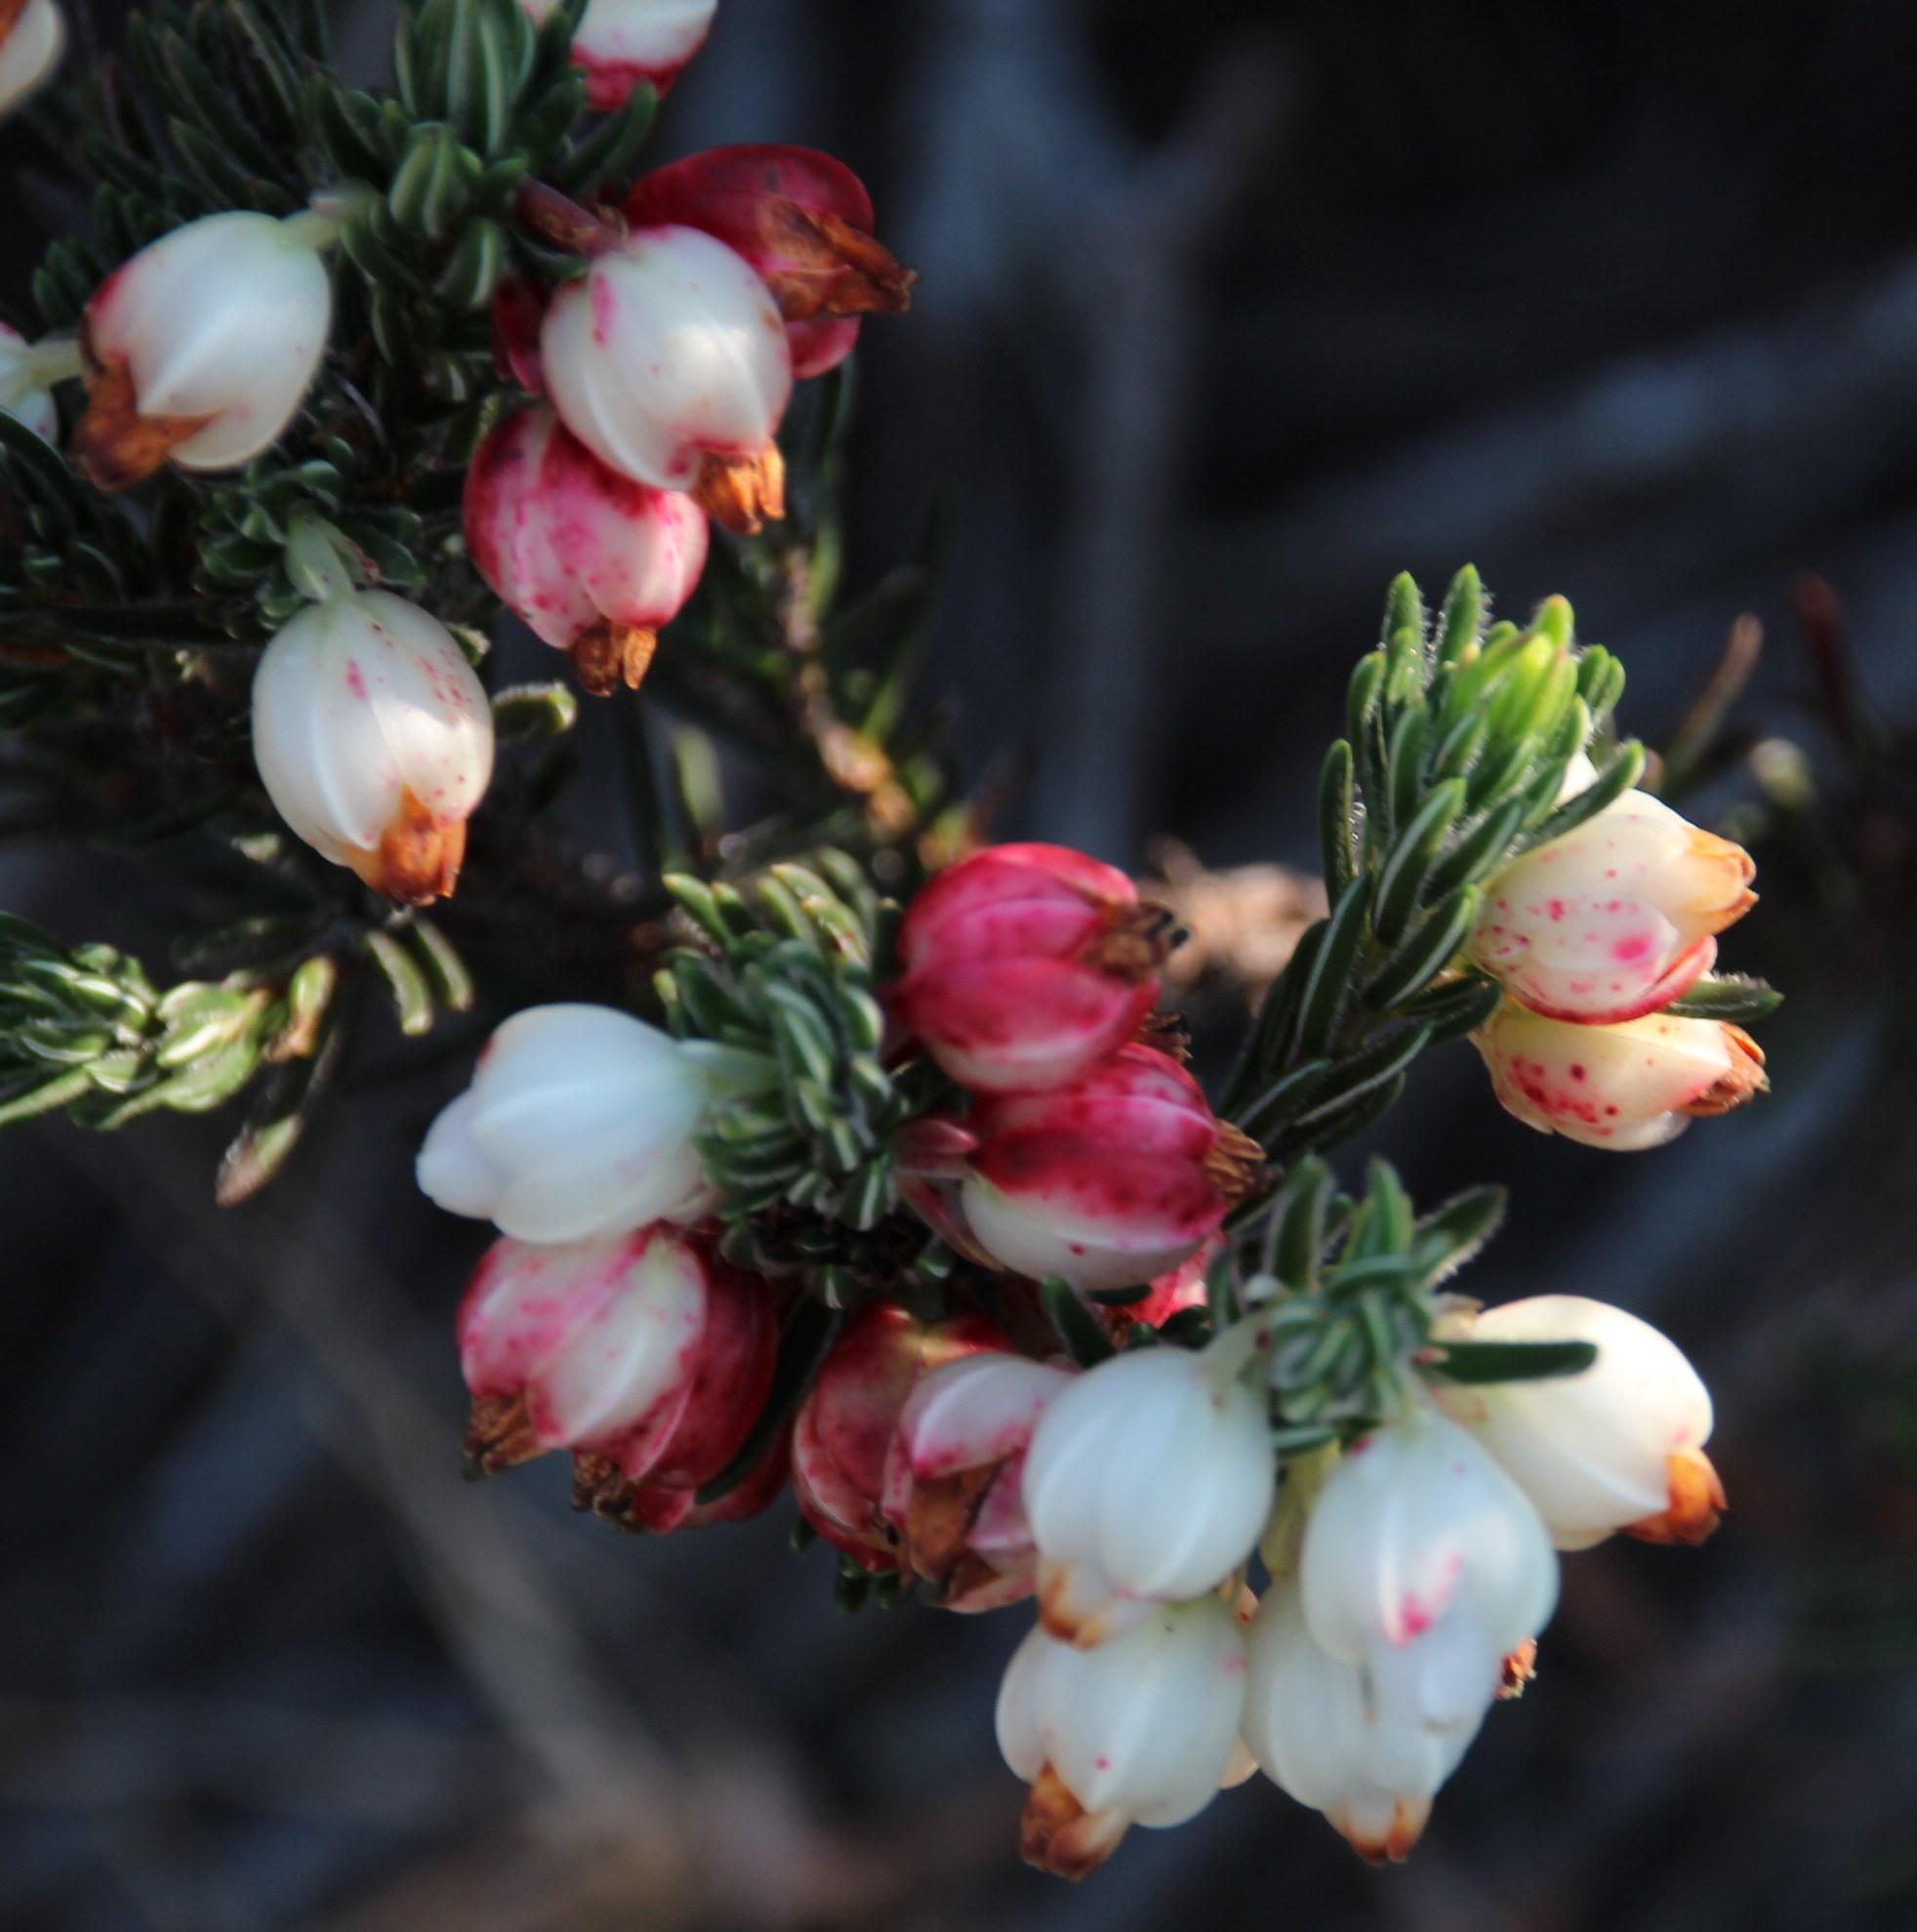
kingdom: Plantae
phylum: Tracheophyta
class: Magnoliopsida
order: Ericales
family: Ericaceae
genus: Erica
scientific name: Erica grisbrookii
